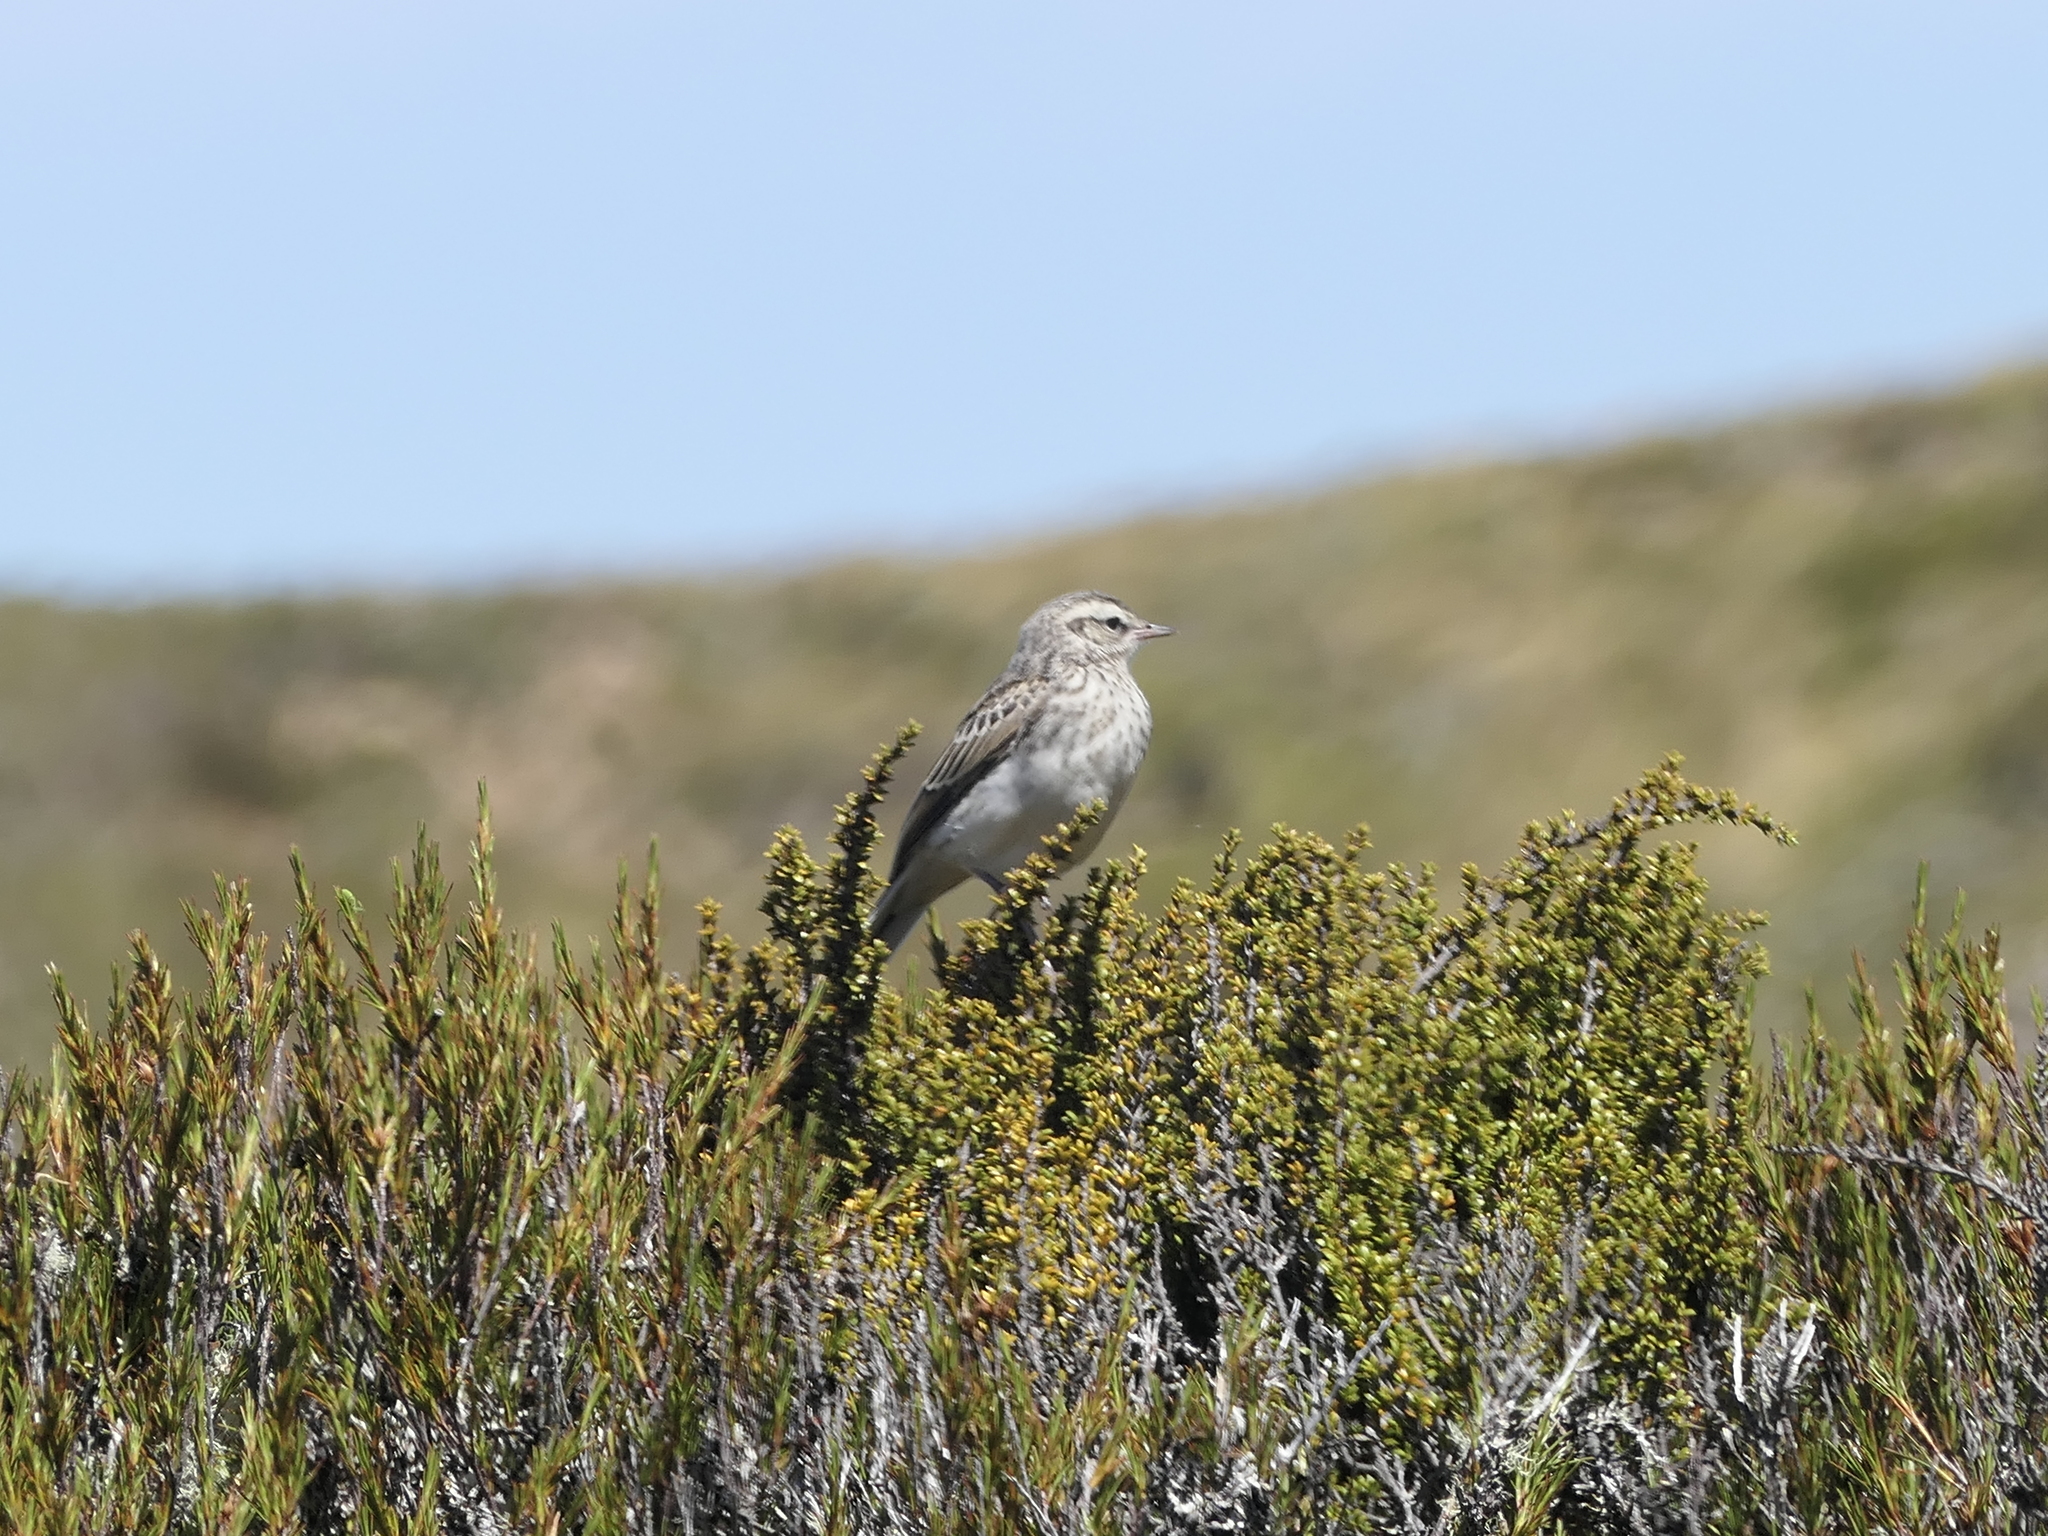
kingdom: Animalia
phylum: Chordata
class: Aves
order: Passeriformes
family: Motacillidae
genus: Anthus
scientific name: Anthus novaeseelandiae
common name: New zealand pipit
